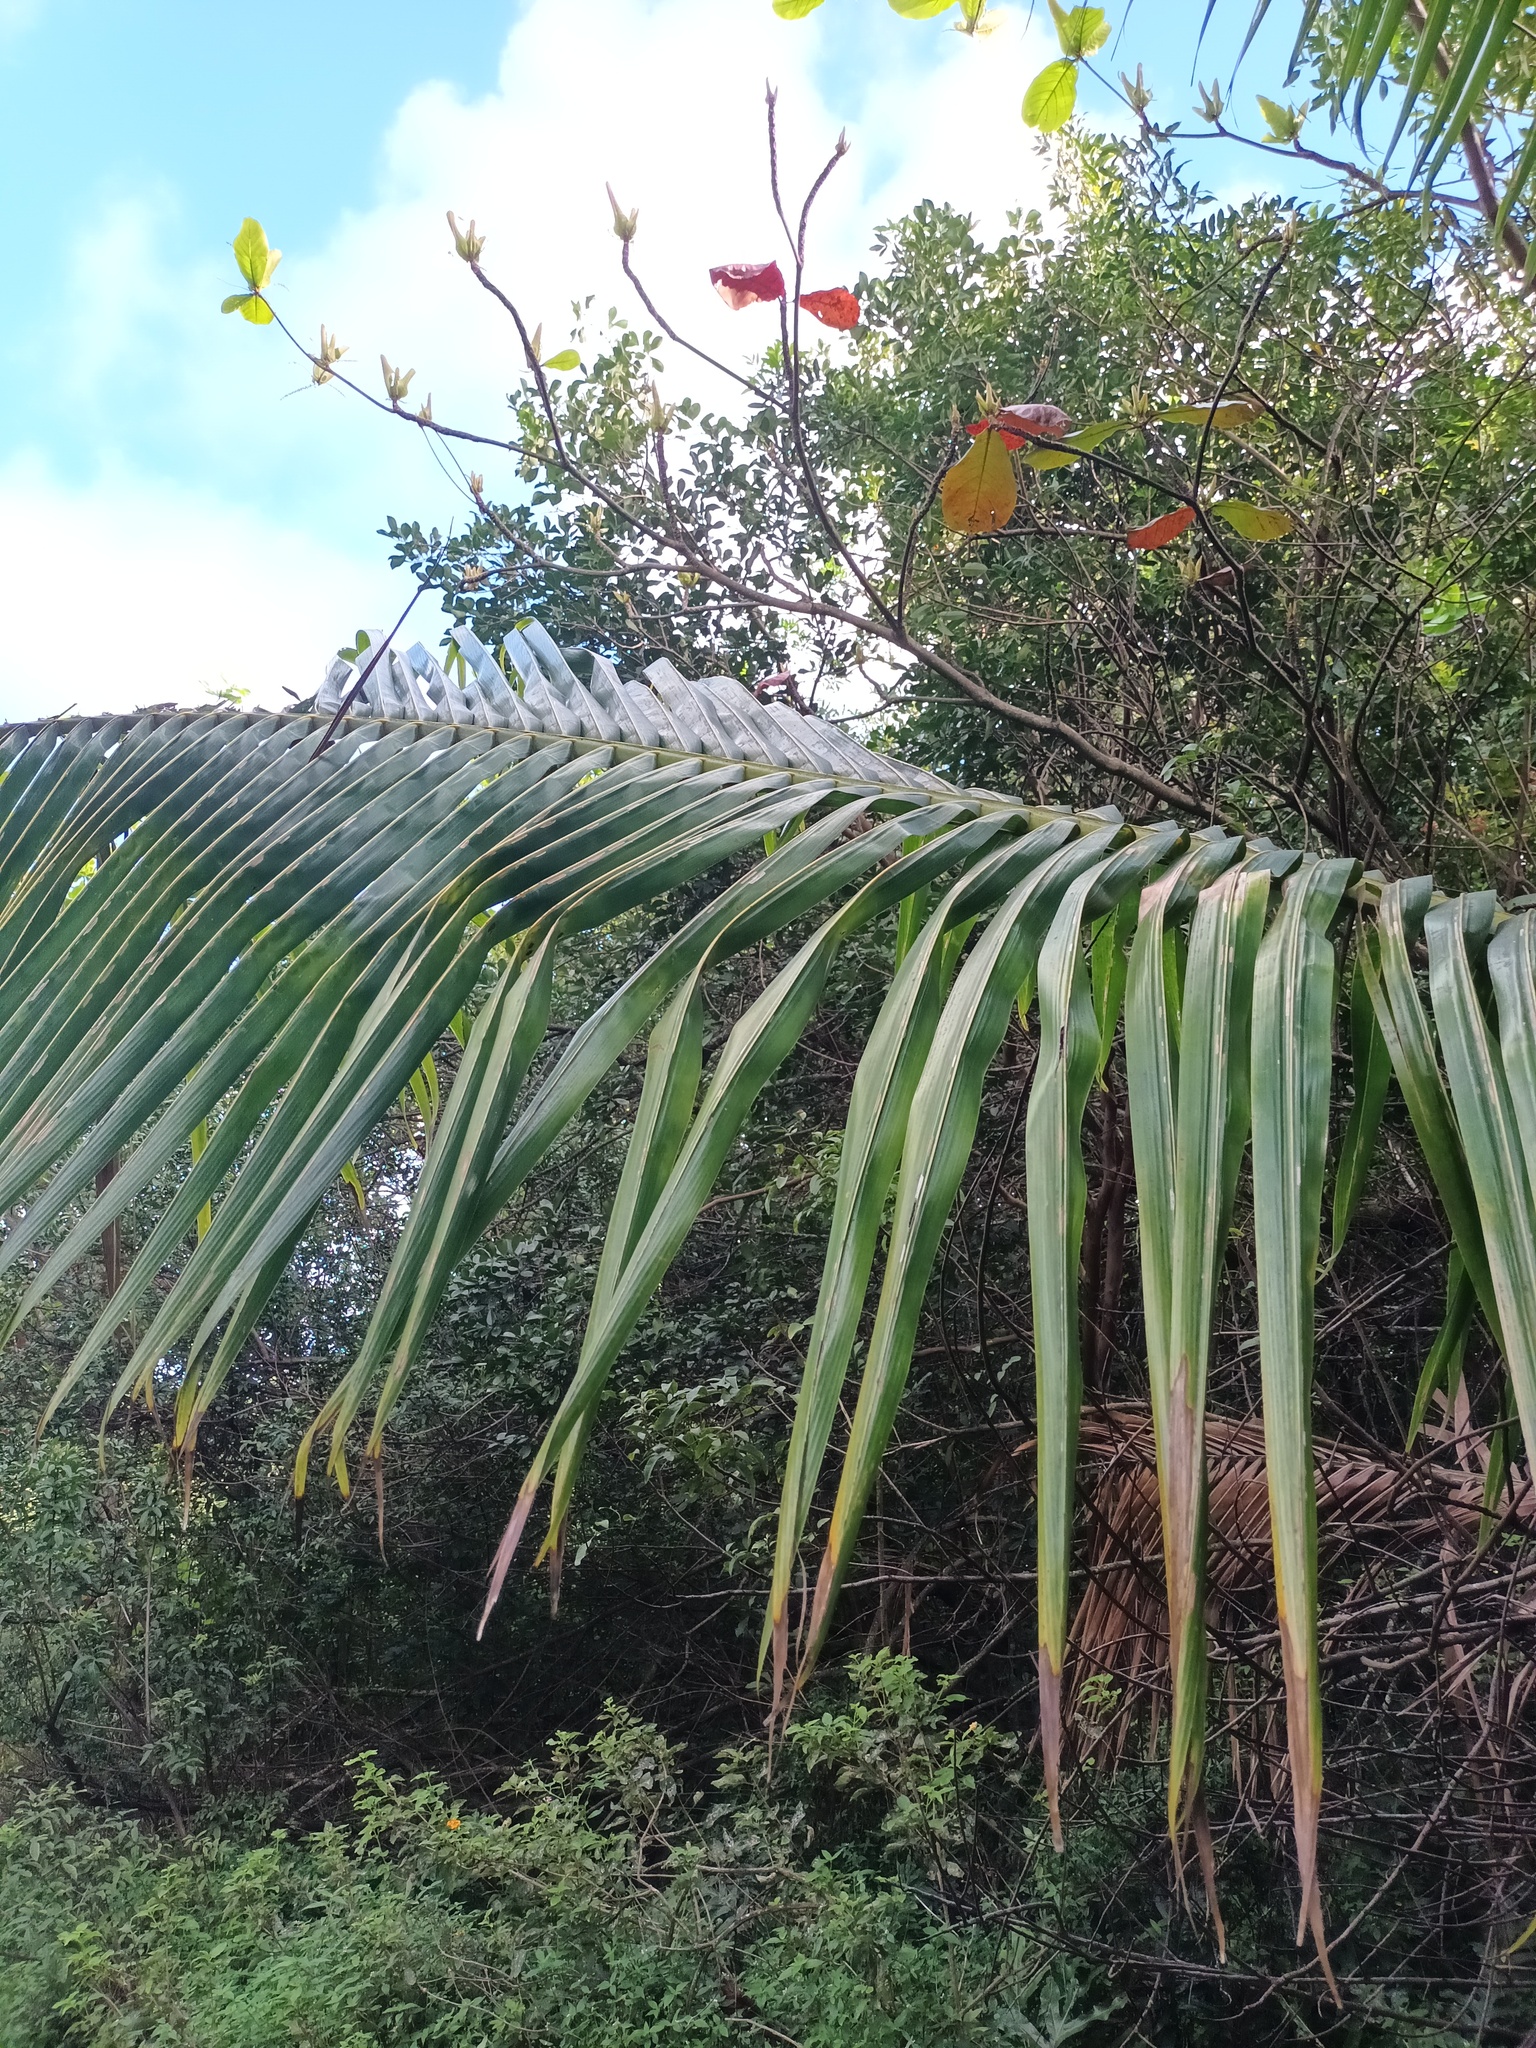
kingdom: Plantae
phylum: Tracheophyta
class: Liliopsida
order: Arecales
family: Arecaceae
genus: Cocos
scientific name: Cocos nucifera
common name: Coconut palm
